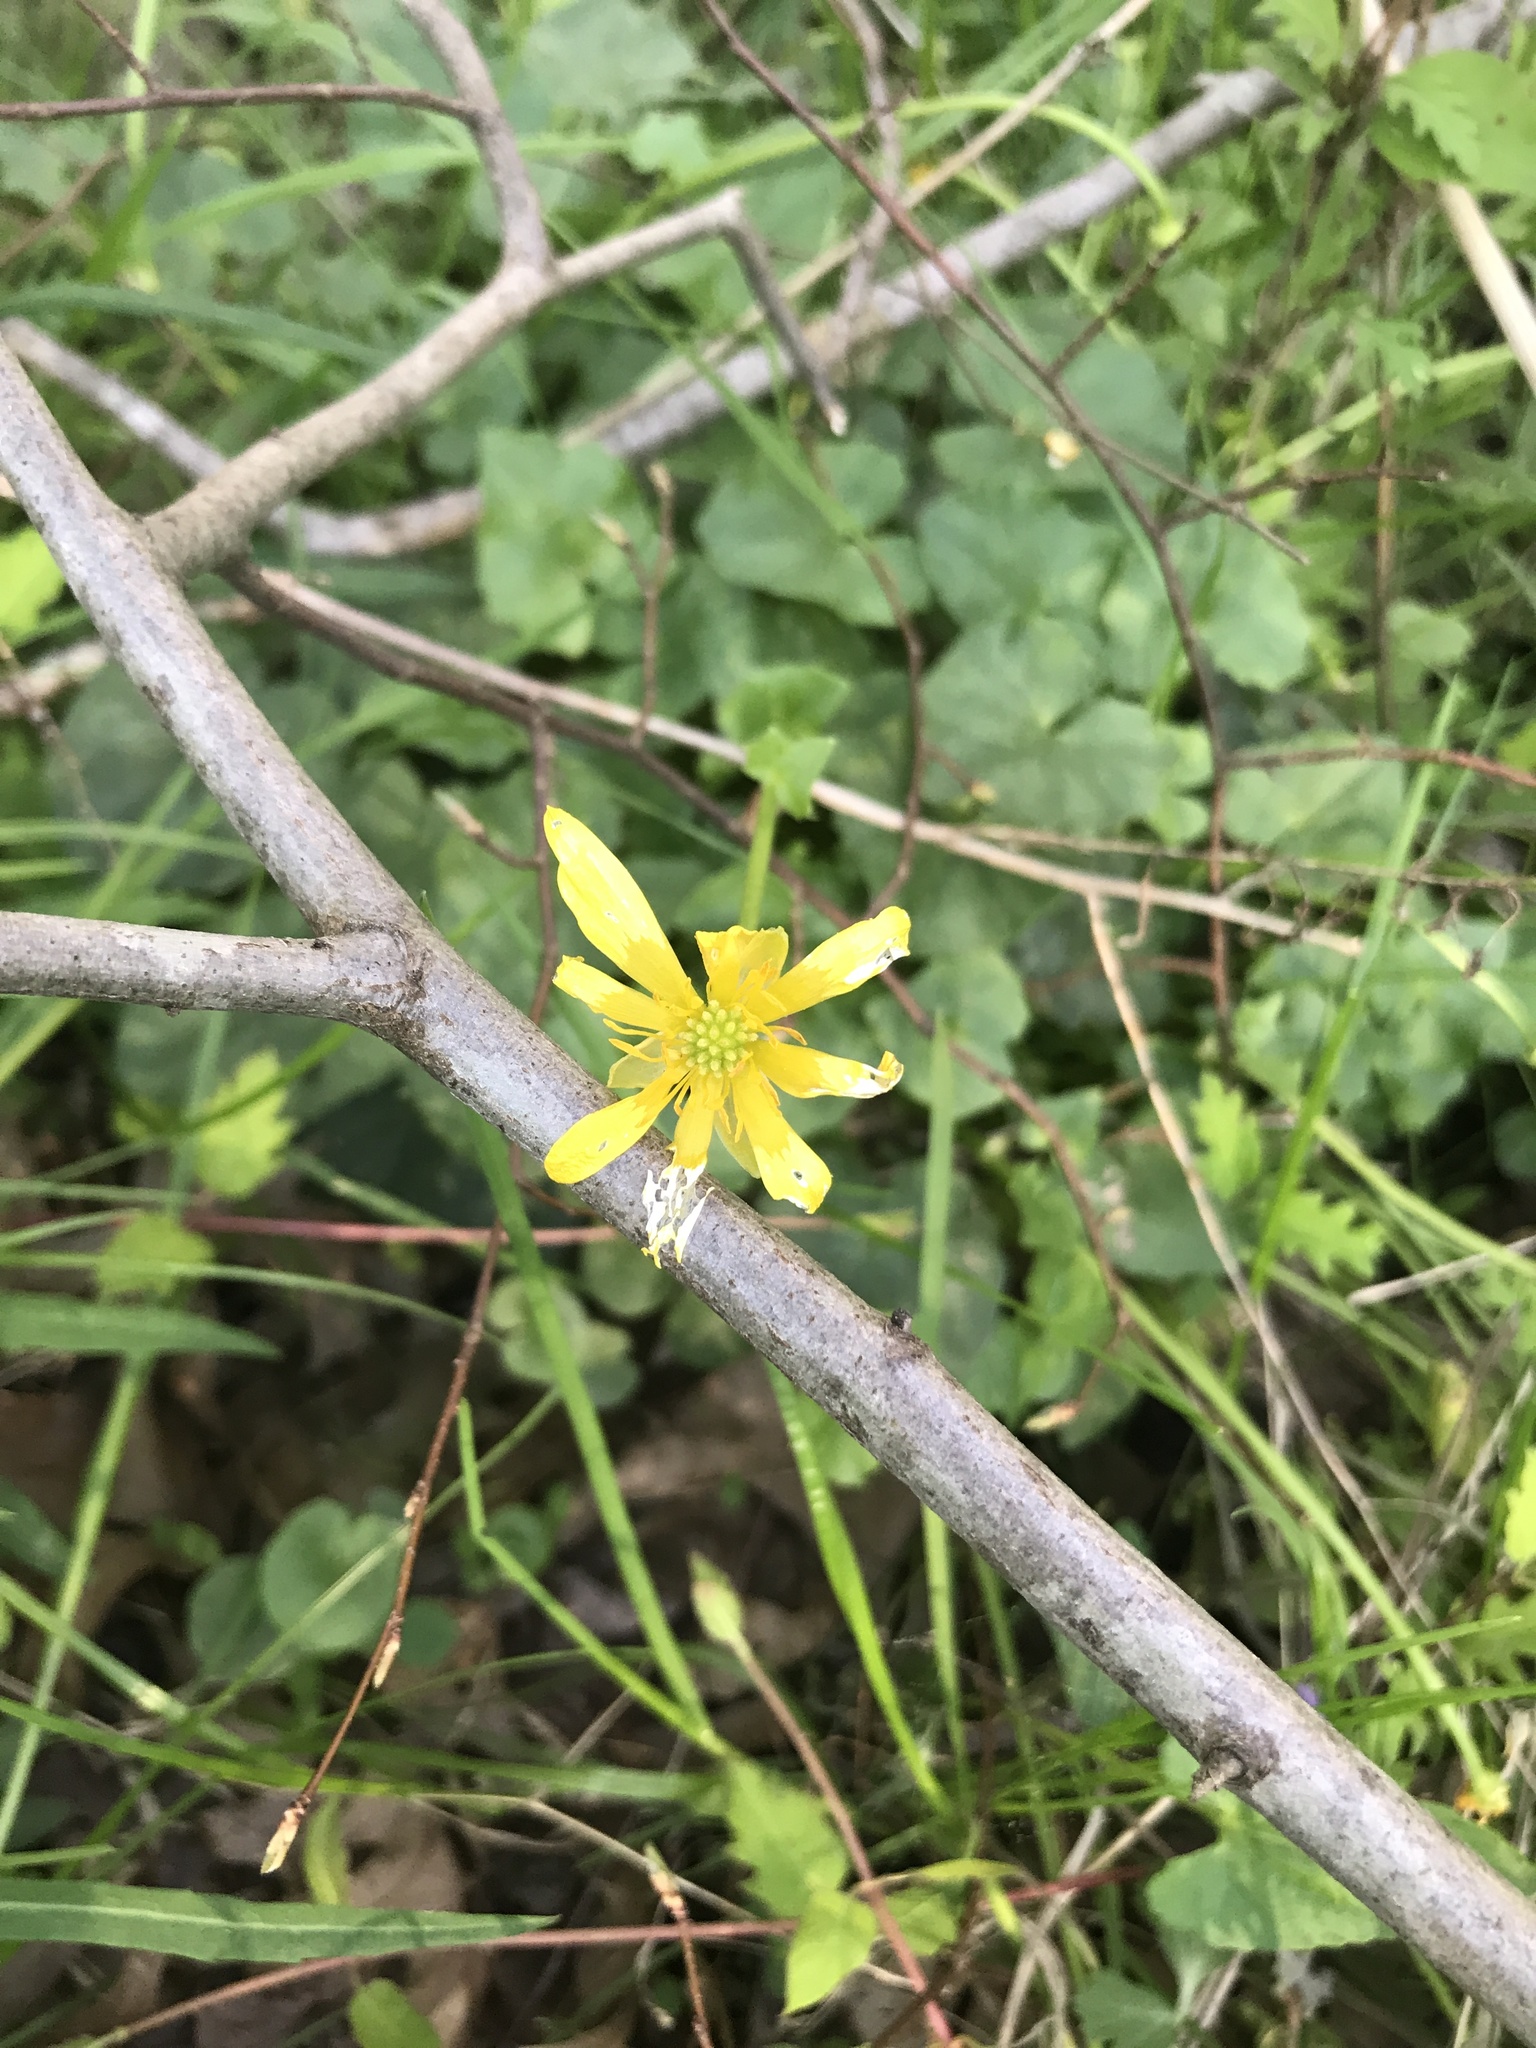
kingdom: Plantae
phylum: Tracheophyta
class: Magnoliopsida
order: Ranunculales
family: Ranunculaceae
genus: Ficaria
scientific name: Ficaria verna
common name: Lesser celandine
